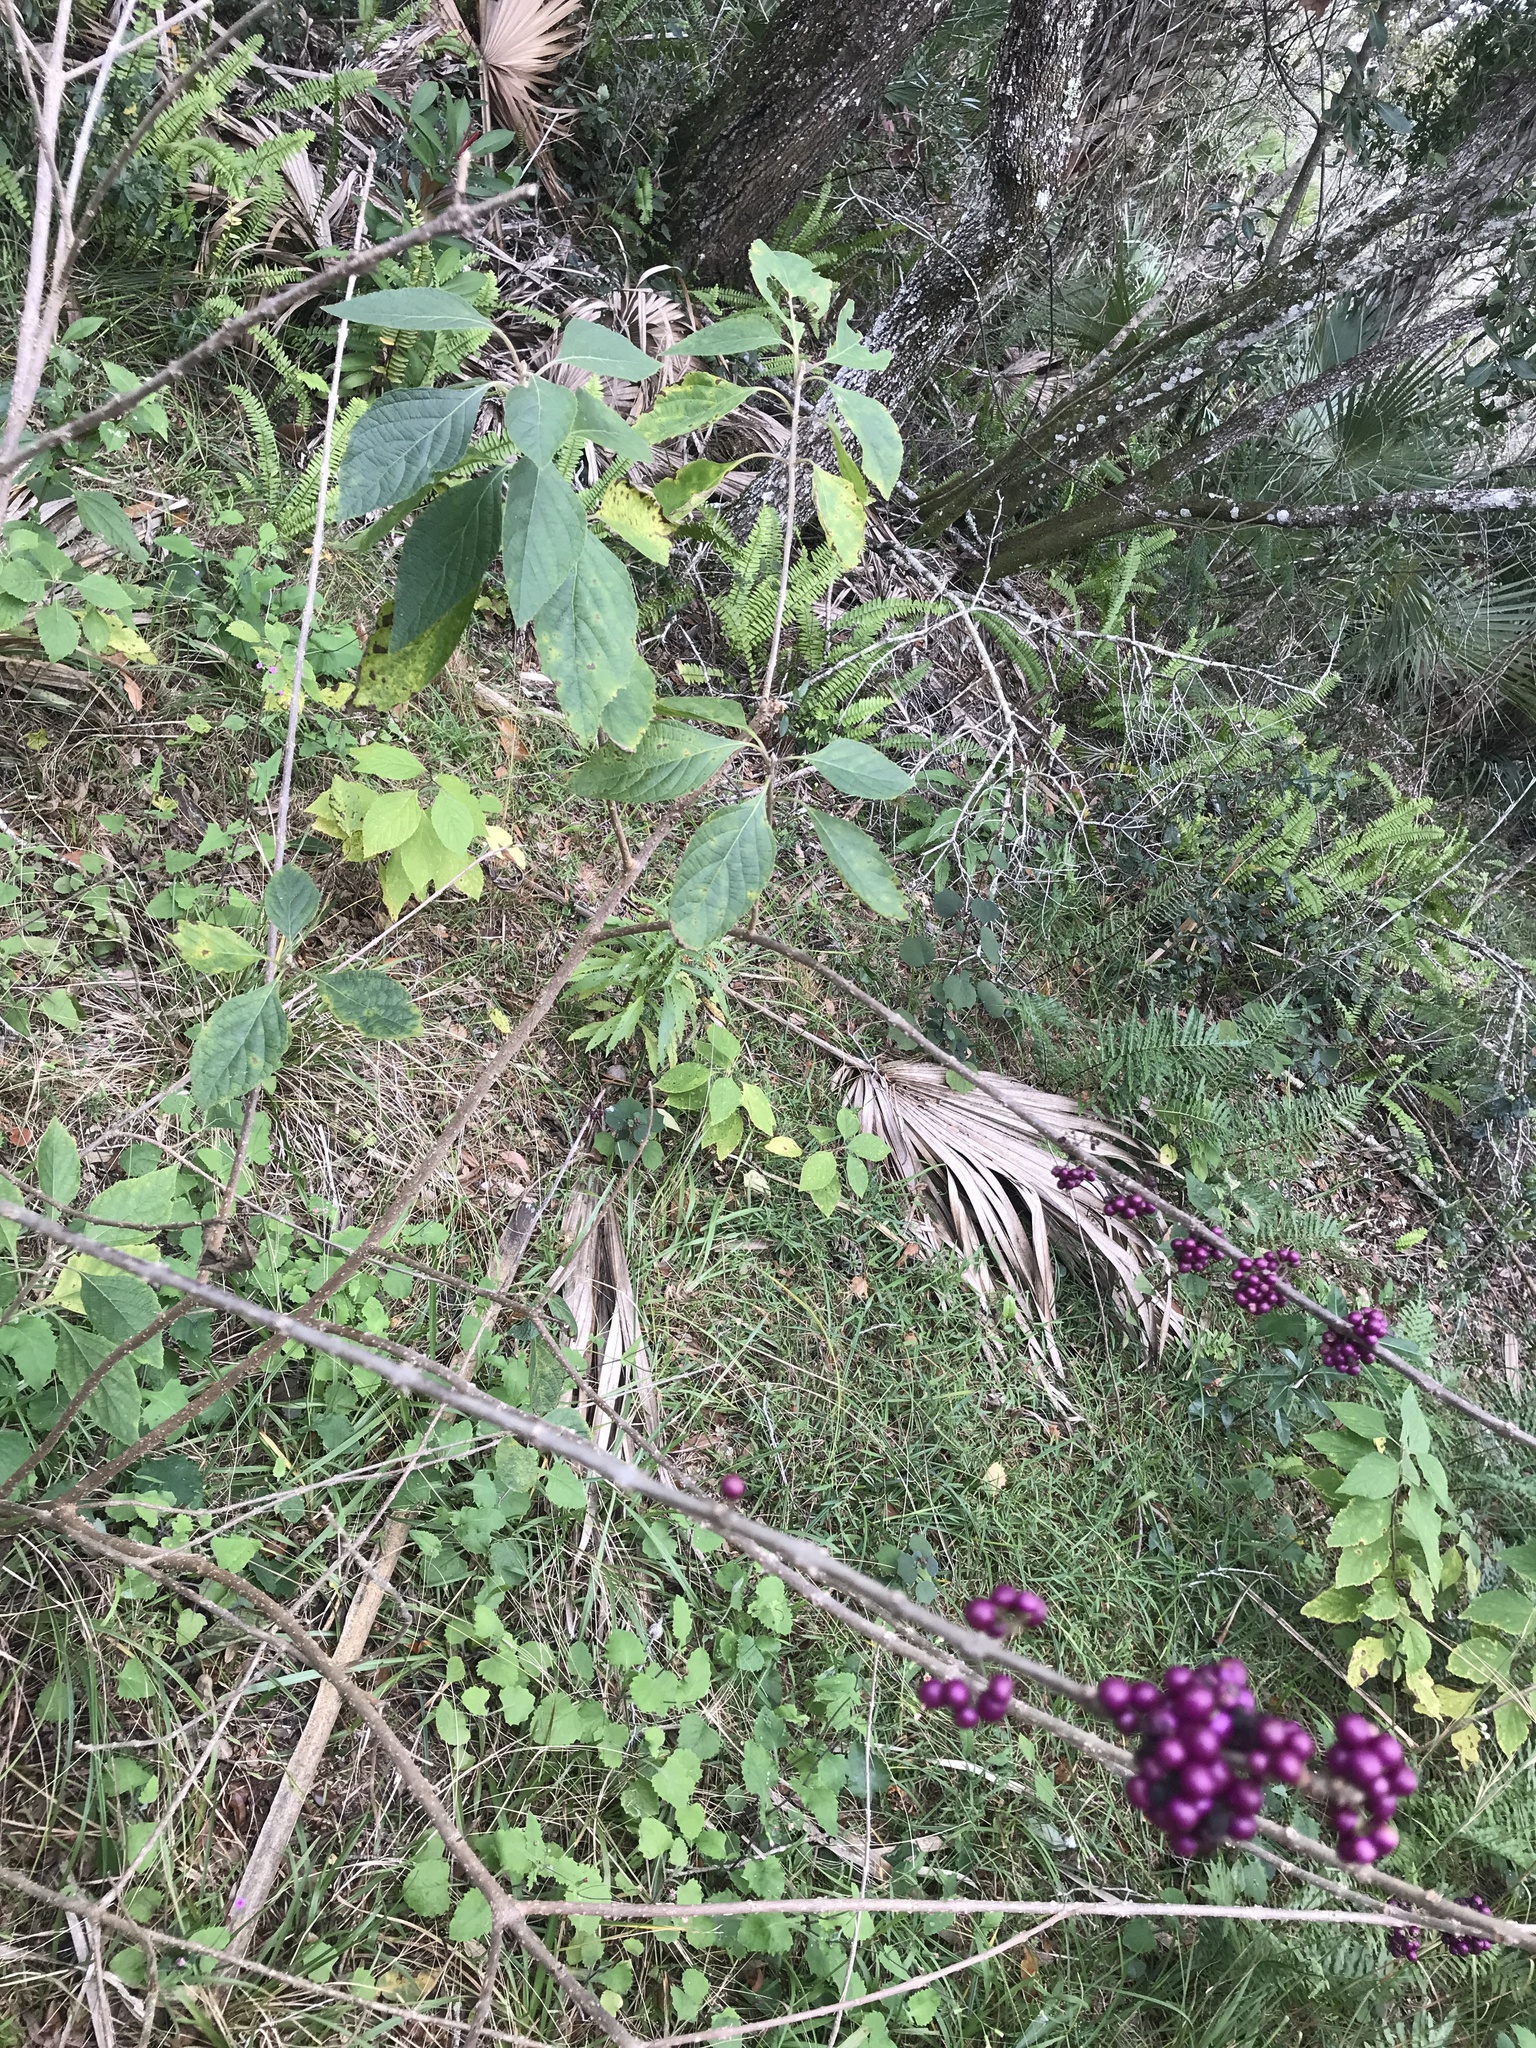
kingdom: Plantae
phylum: Tracheophyta
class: Magnoliopsida
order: Lamiales
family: Lamiaceae
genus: Callicarpa
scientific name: Callicarpa americana
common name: American beautyberry
